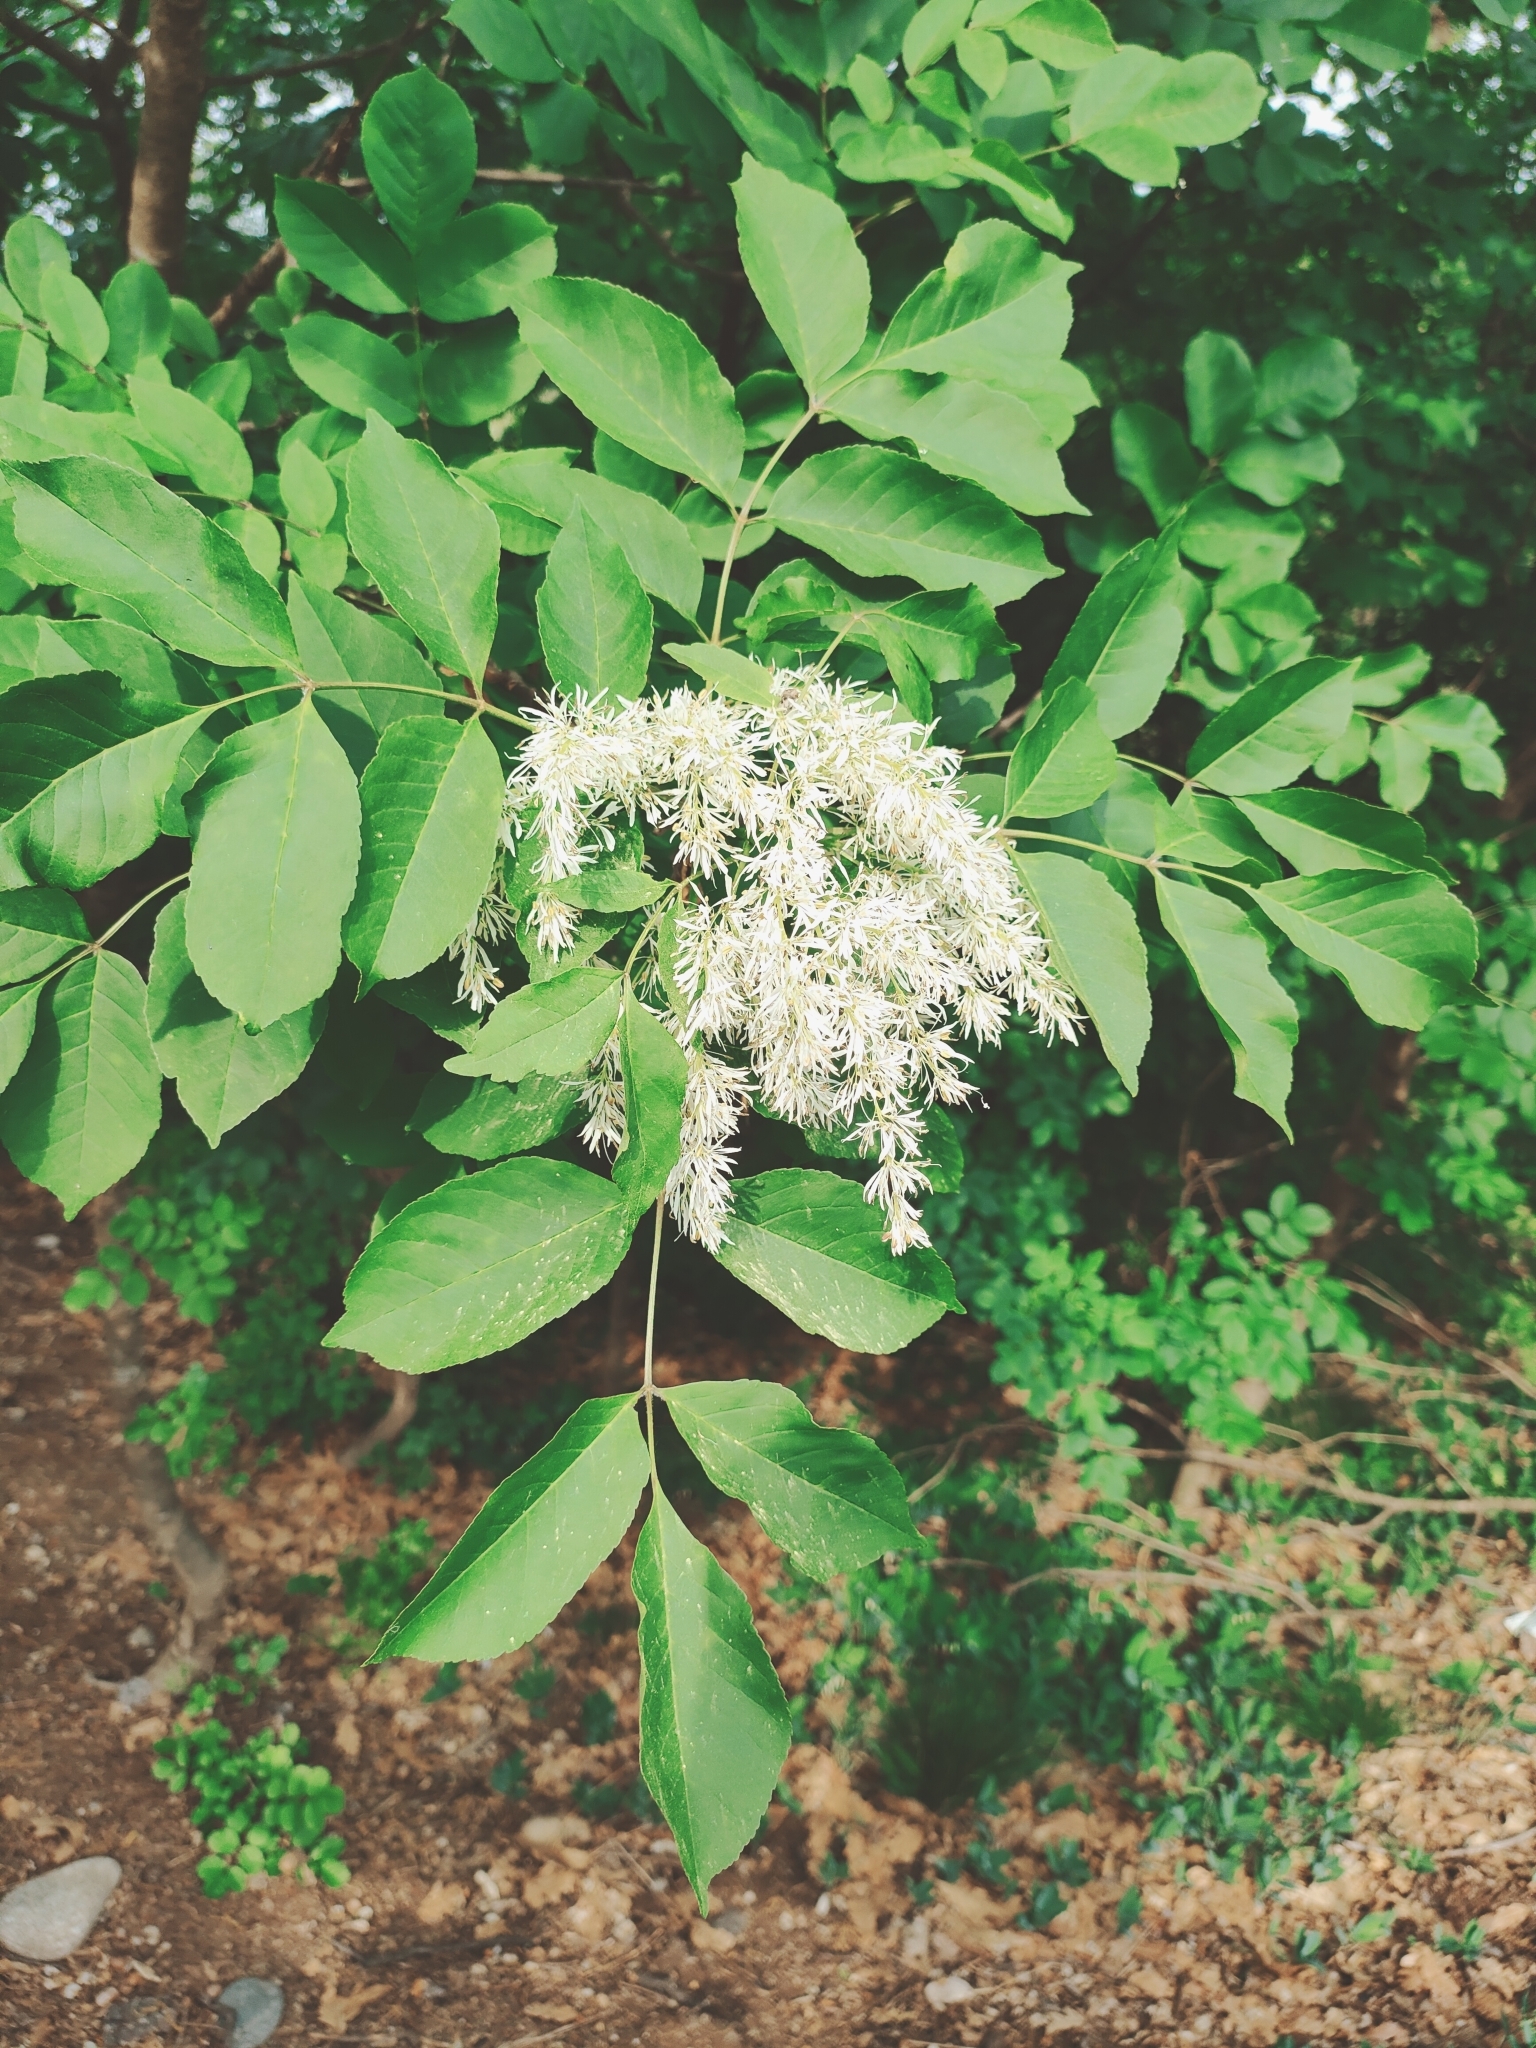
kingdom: Plantae
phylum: Tracheophyta
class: Magnoliopsida
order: Lamiales
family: Oleaceae
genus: Fraxinus
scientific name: Fraxinus ornus
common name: Manna ash
